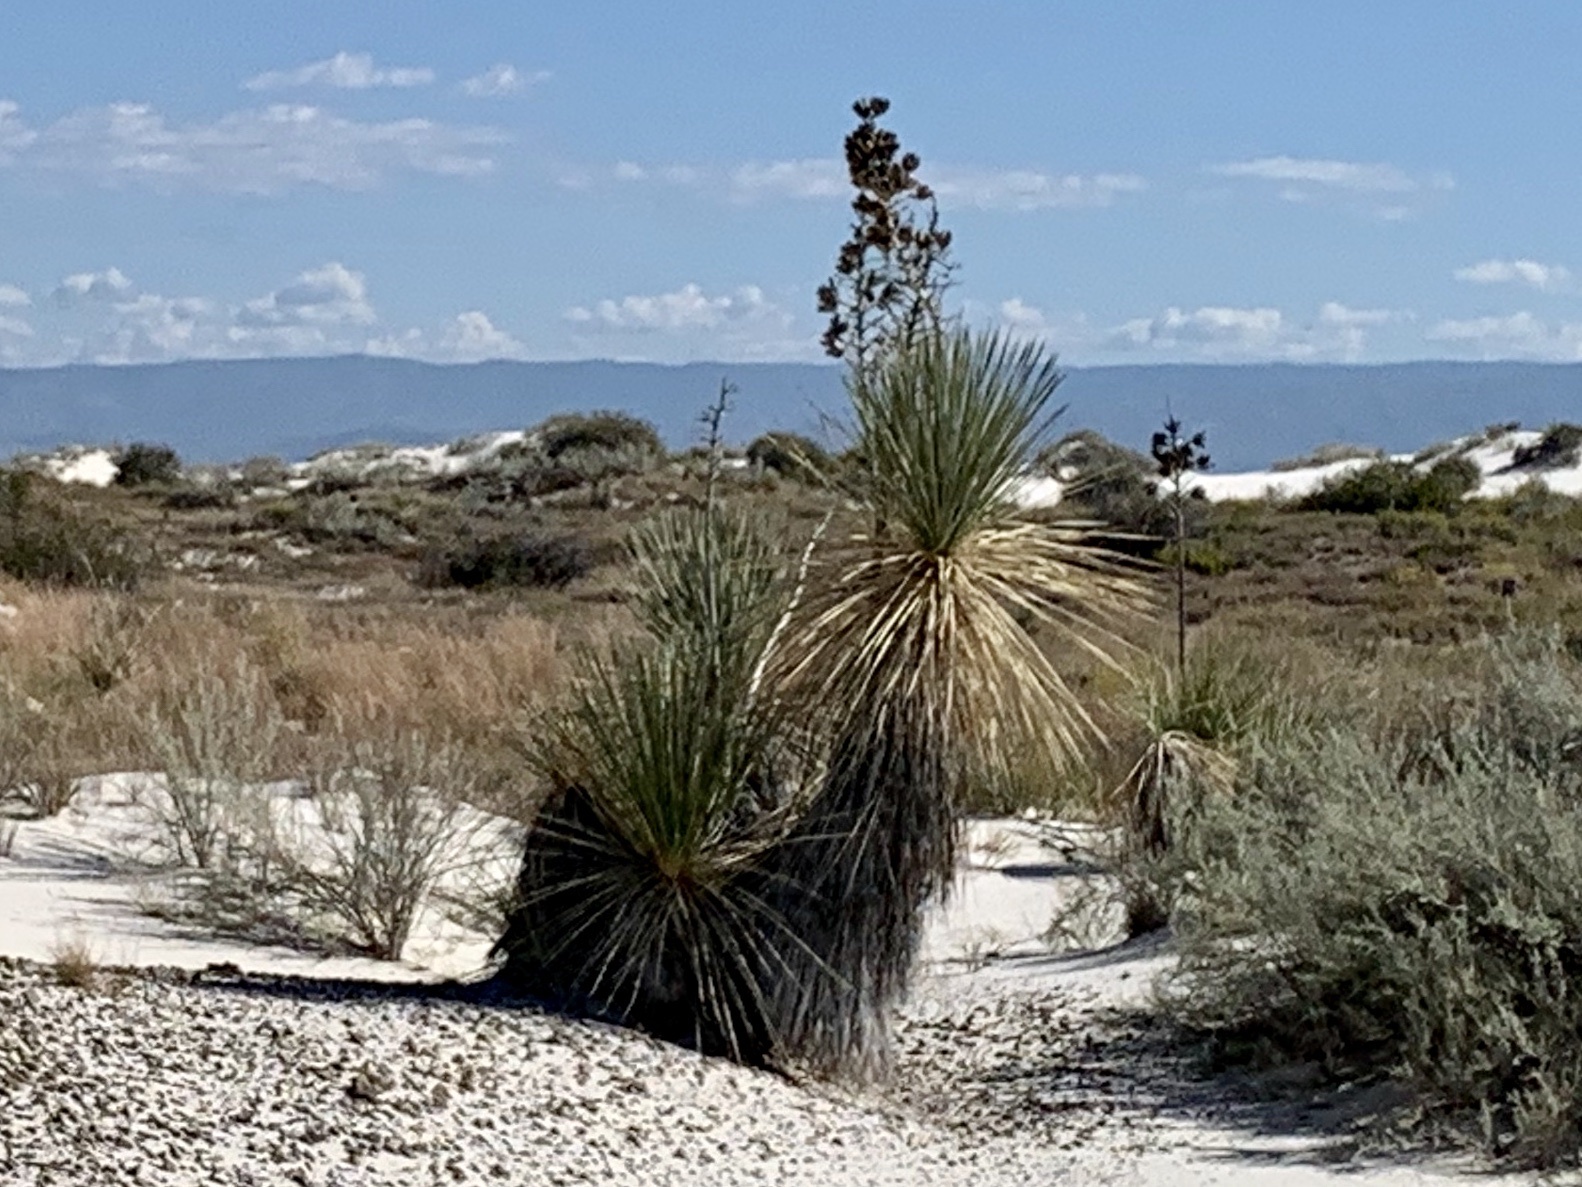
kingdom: Plantae
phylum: Tracheophyta
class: Liliopsida
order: Asparagales
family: Asparagaceae
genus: Yucca
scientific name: Yucca elata
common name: Palmella
